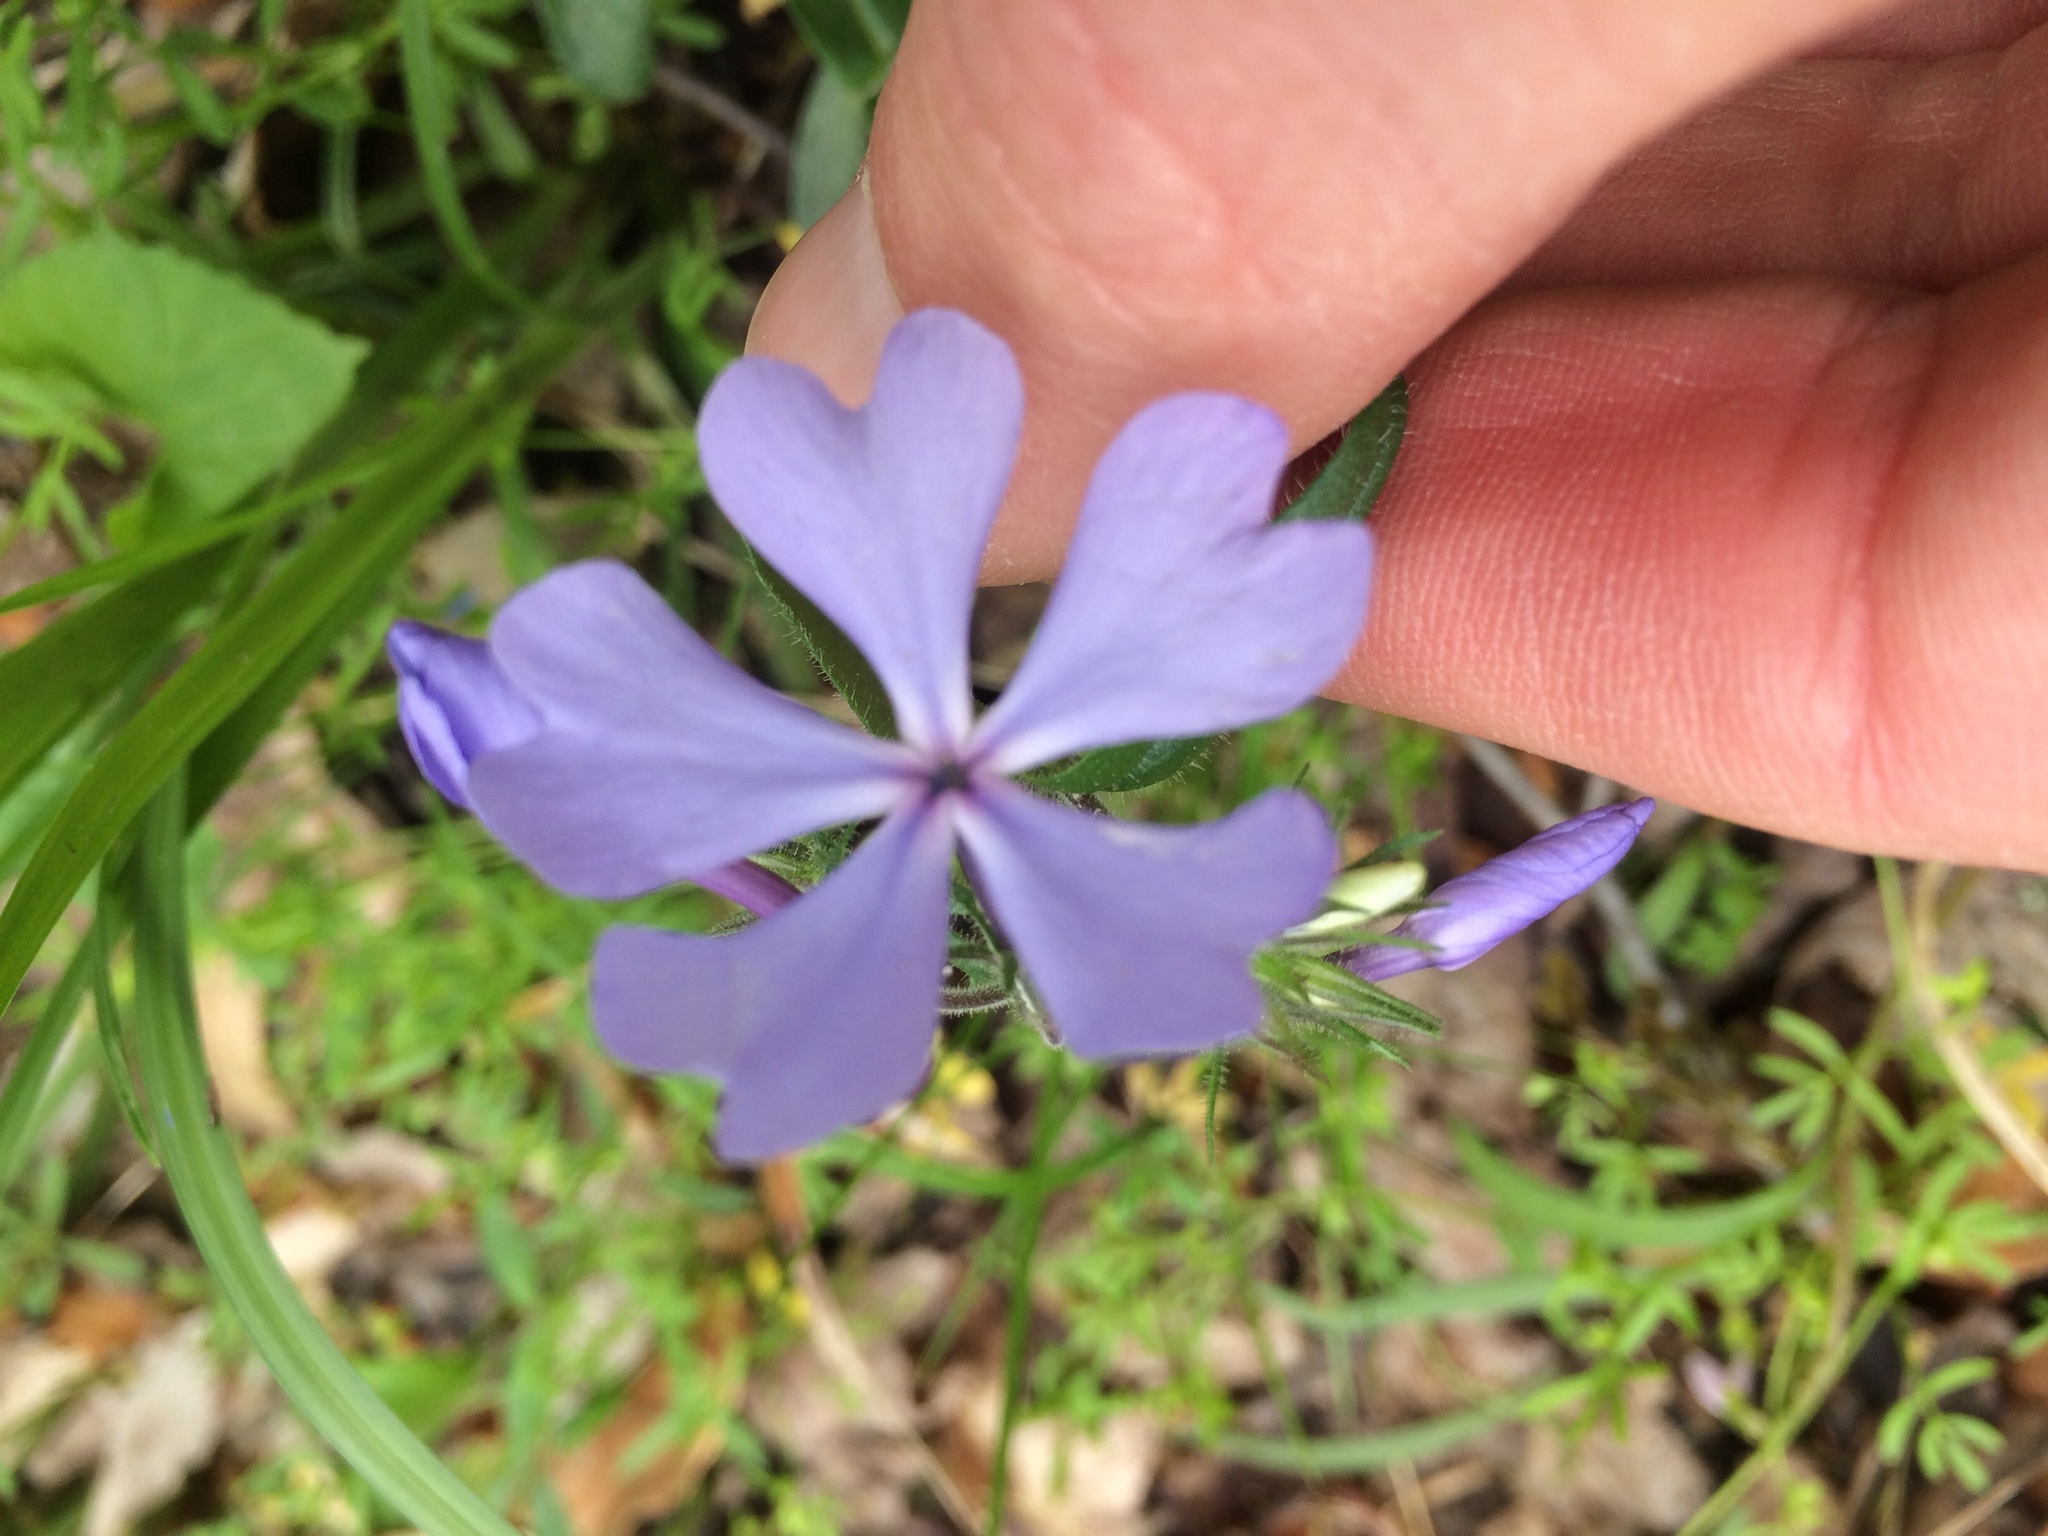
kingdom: Plantae
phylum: Tracheophyta
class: Magnoliopsida
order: Ericales
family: Polemoniaceae
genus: Phlox
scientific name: Phlox divaricata
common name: Blue phlox
